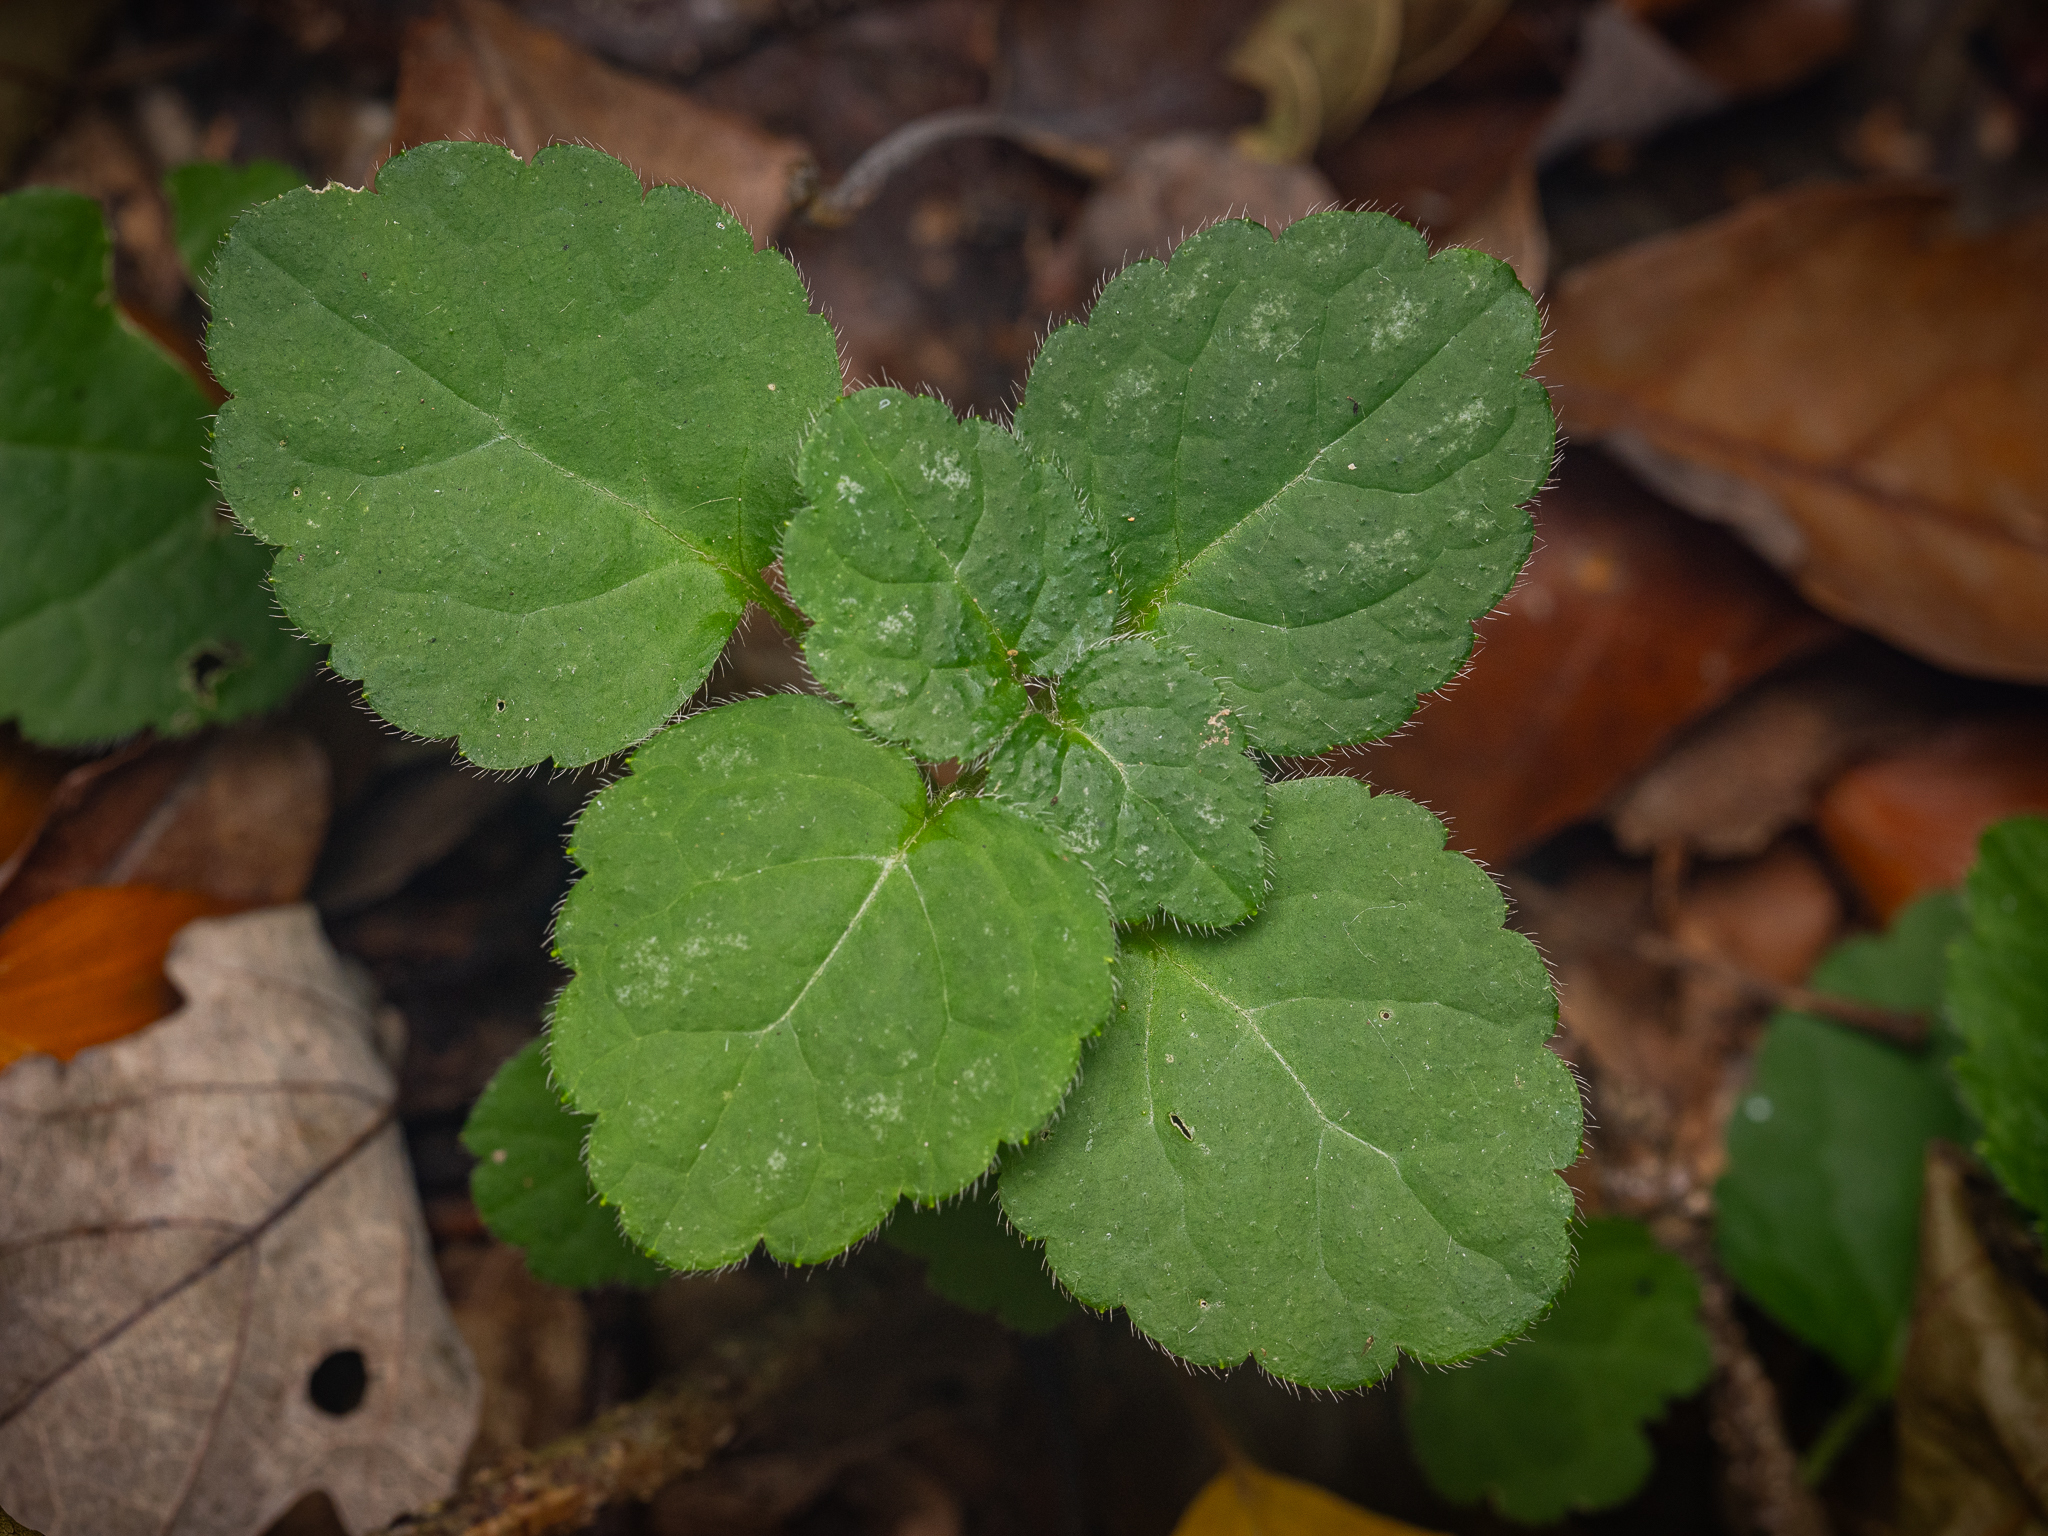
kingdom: Plantae
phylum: Tracheophyta
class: Magnoliopsida
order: Lamiales
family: Lamiaceae
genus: Lamium
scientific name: Lamium galeobdolon
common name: Yellow archangel
